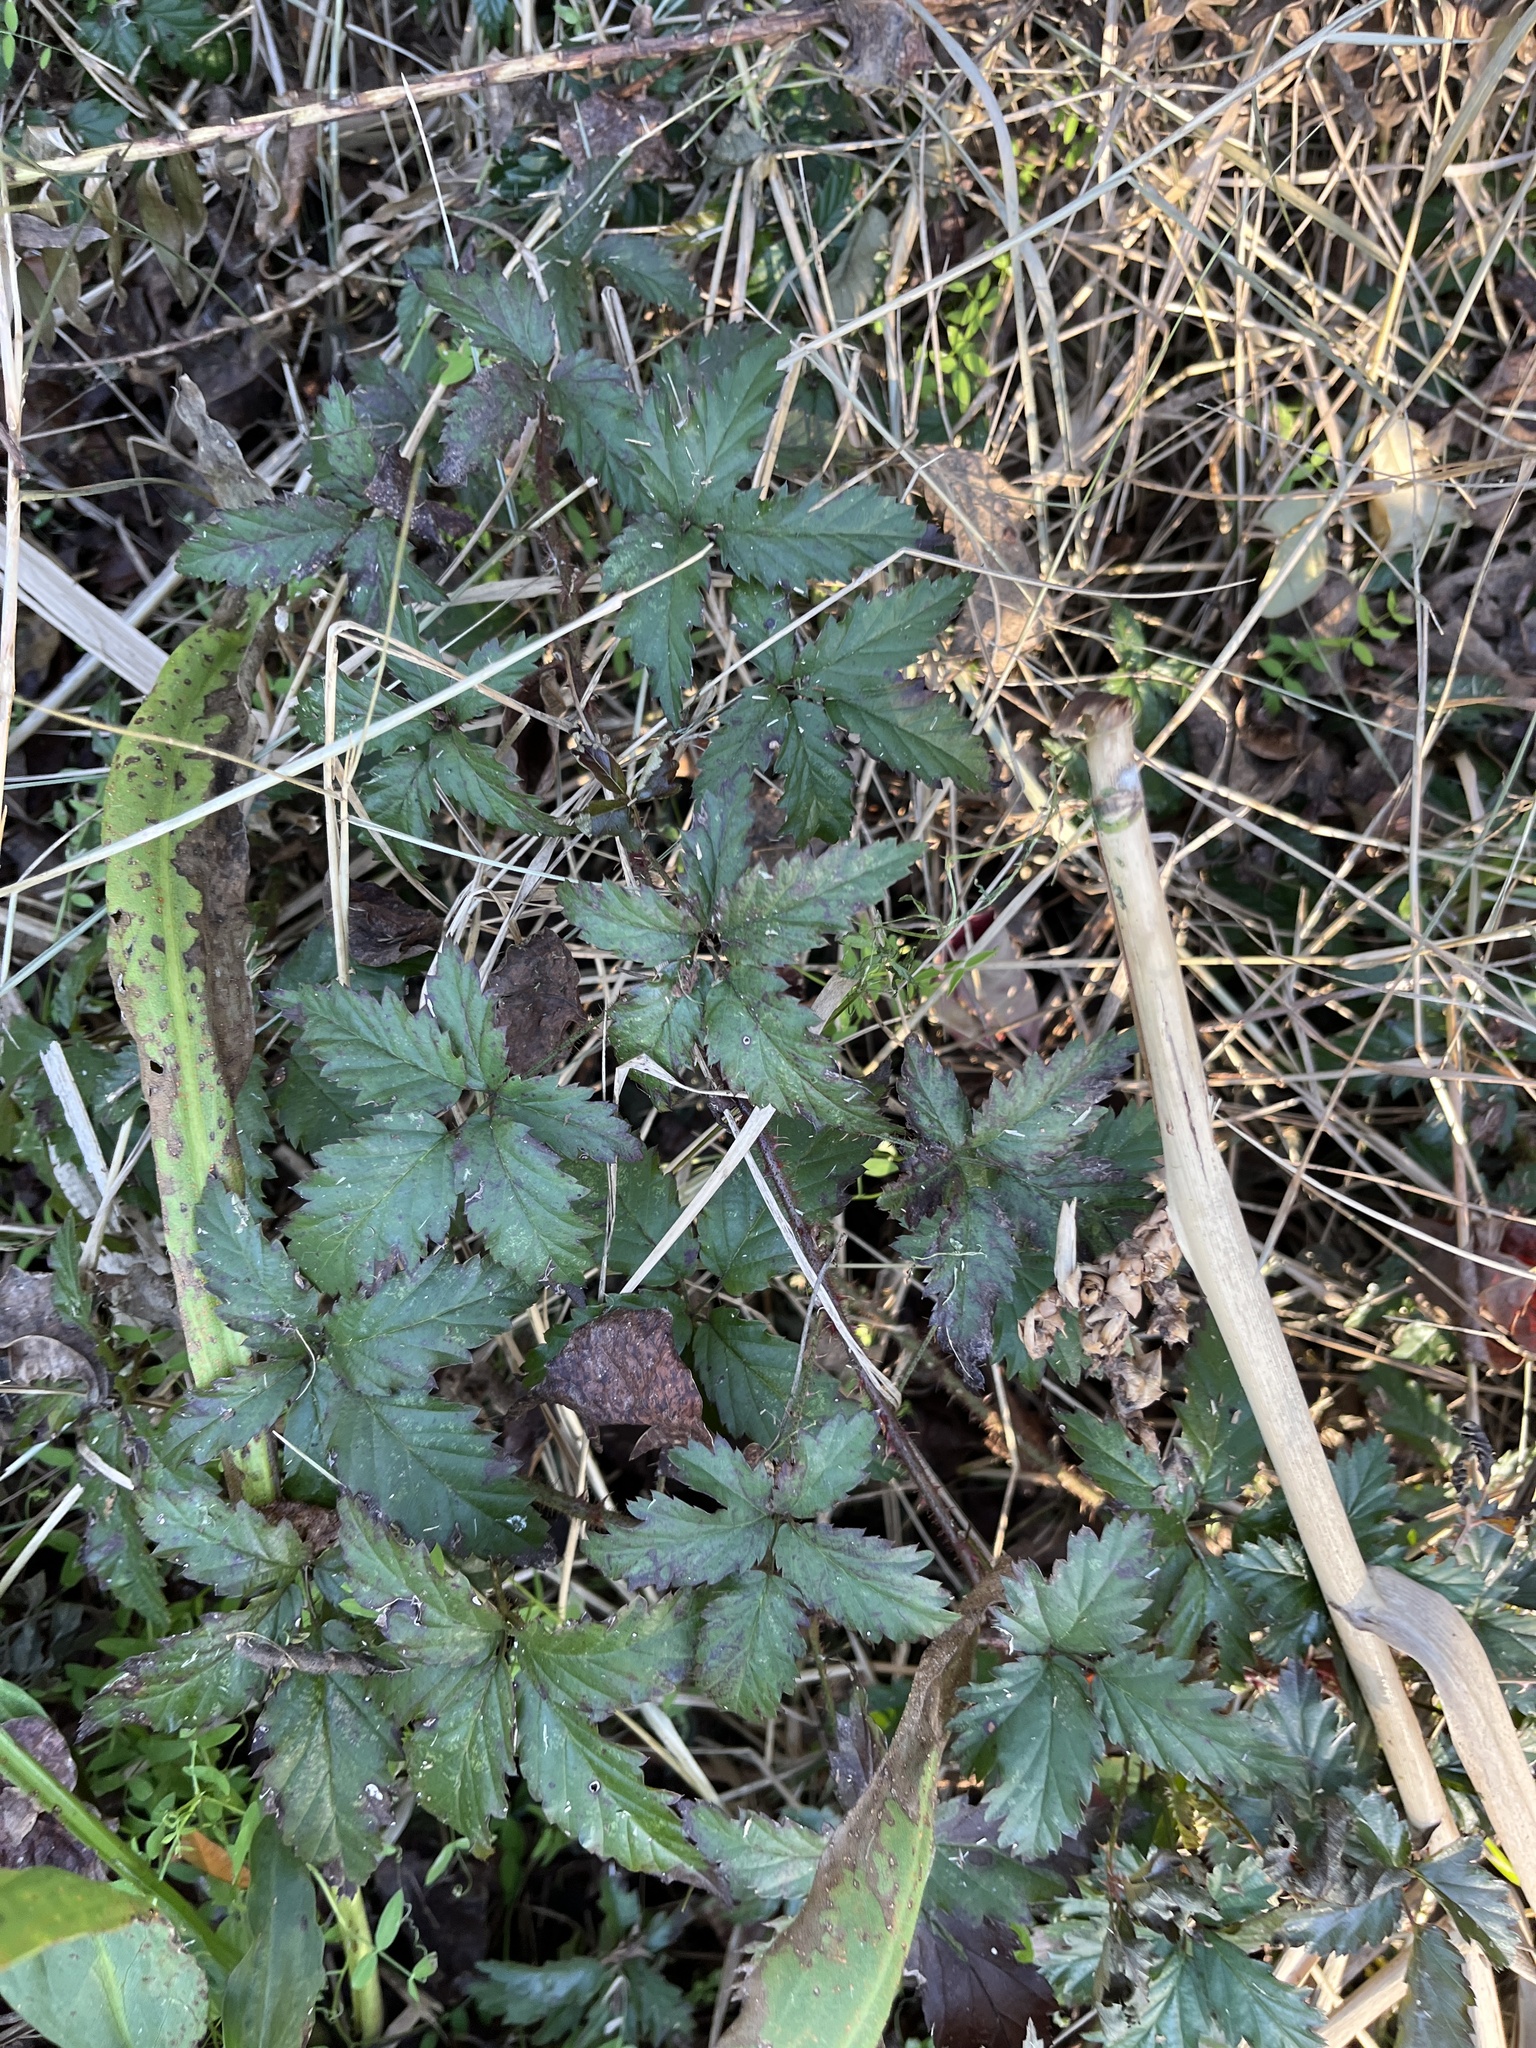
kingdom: Plantae
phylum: Tracheophyta
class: Magnoliopsida
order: Rosales
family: Rosaceae
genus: Rubus
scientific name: Rubus trivialis
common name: Southern dewberry
